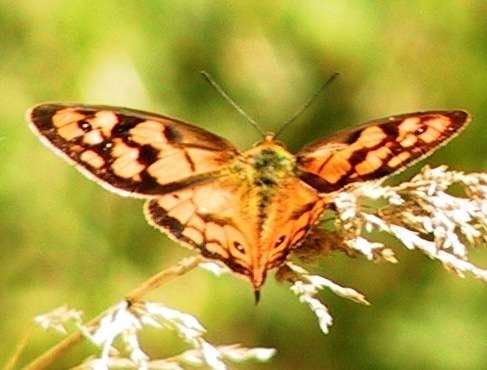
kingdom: Animalia
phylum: Arthropoda
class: Insecta
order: Lepidoptera
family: Nymphalidae
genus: Heteronympha
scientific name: Heteronympha penelope
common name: Shouldered brown
